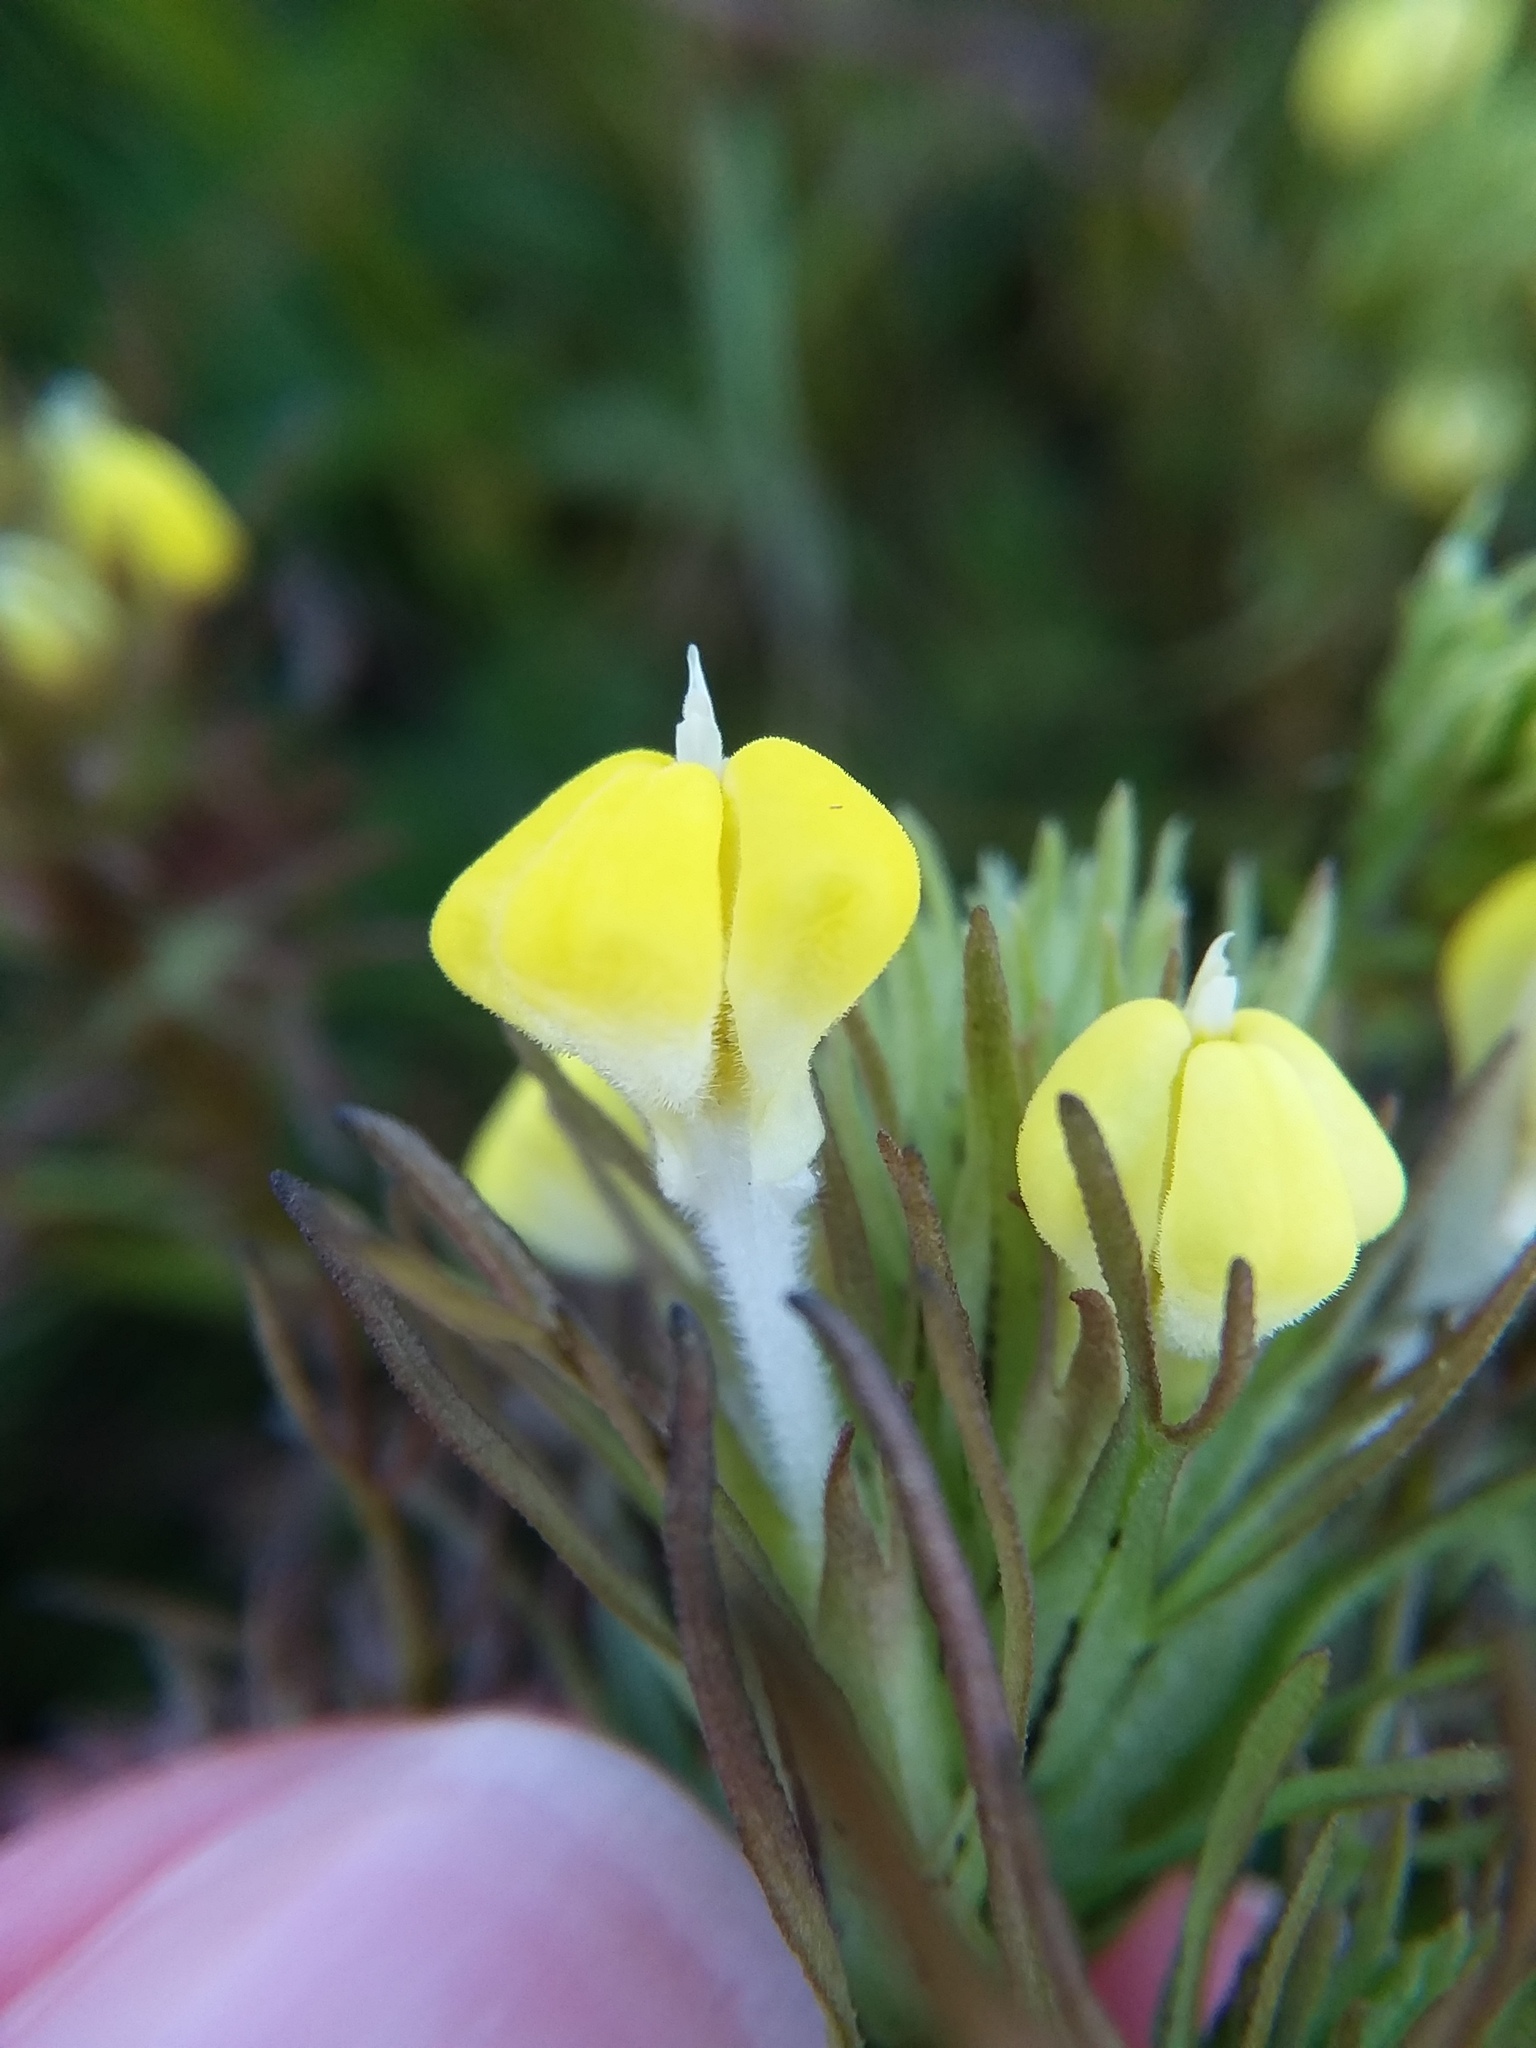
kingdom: Plantae
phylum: Tracheophyta
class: Magnoliopsida
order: Lamiales
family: Orobanchaceae
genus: Triphysaria
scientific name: Triphysaria versicolor
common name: Bearded false owl-clover
